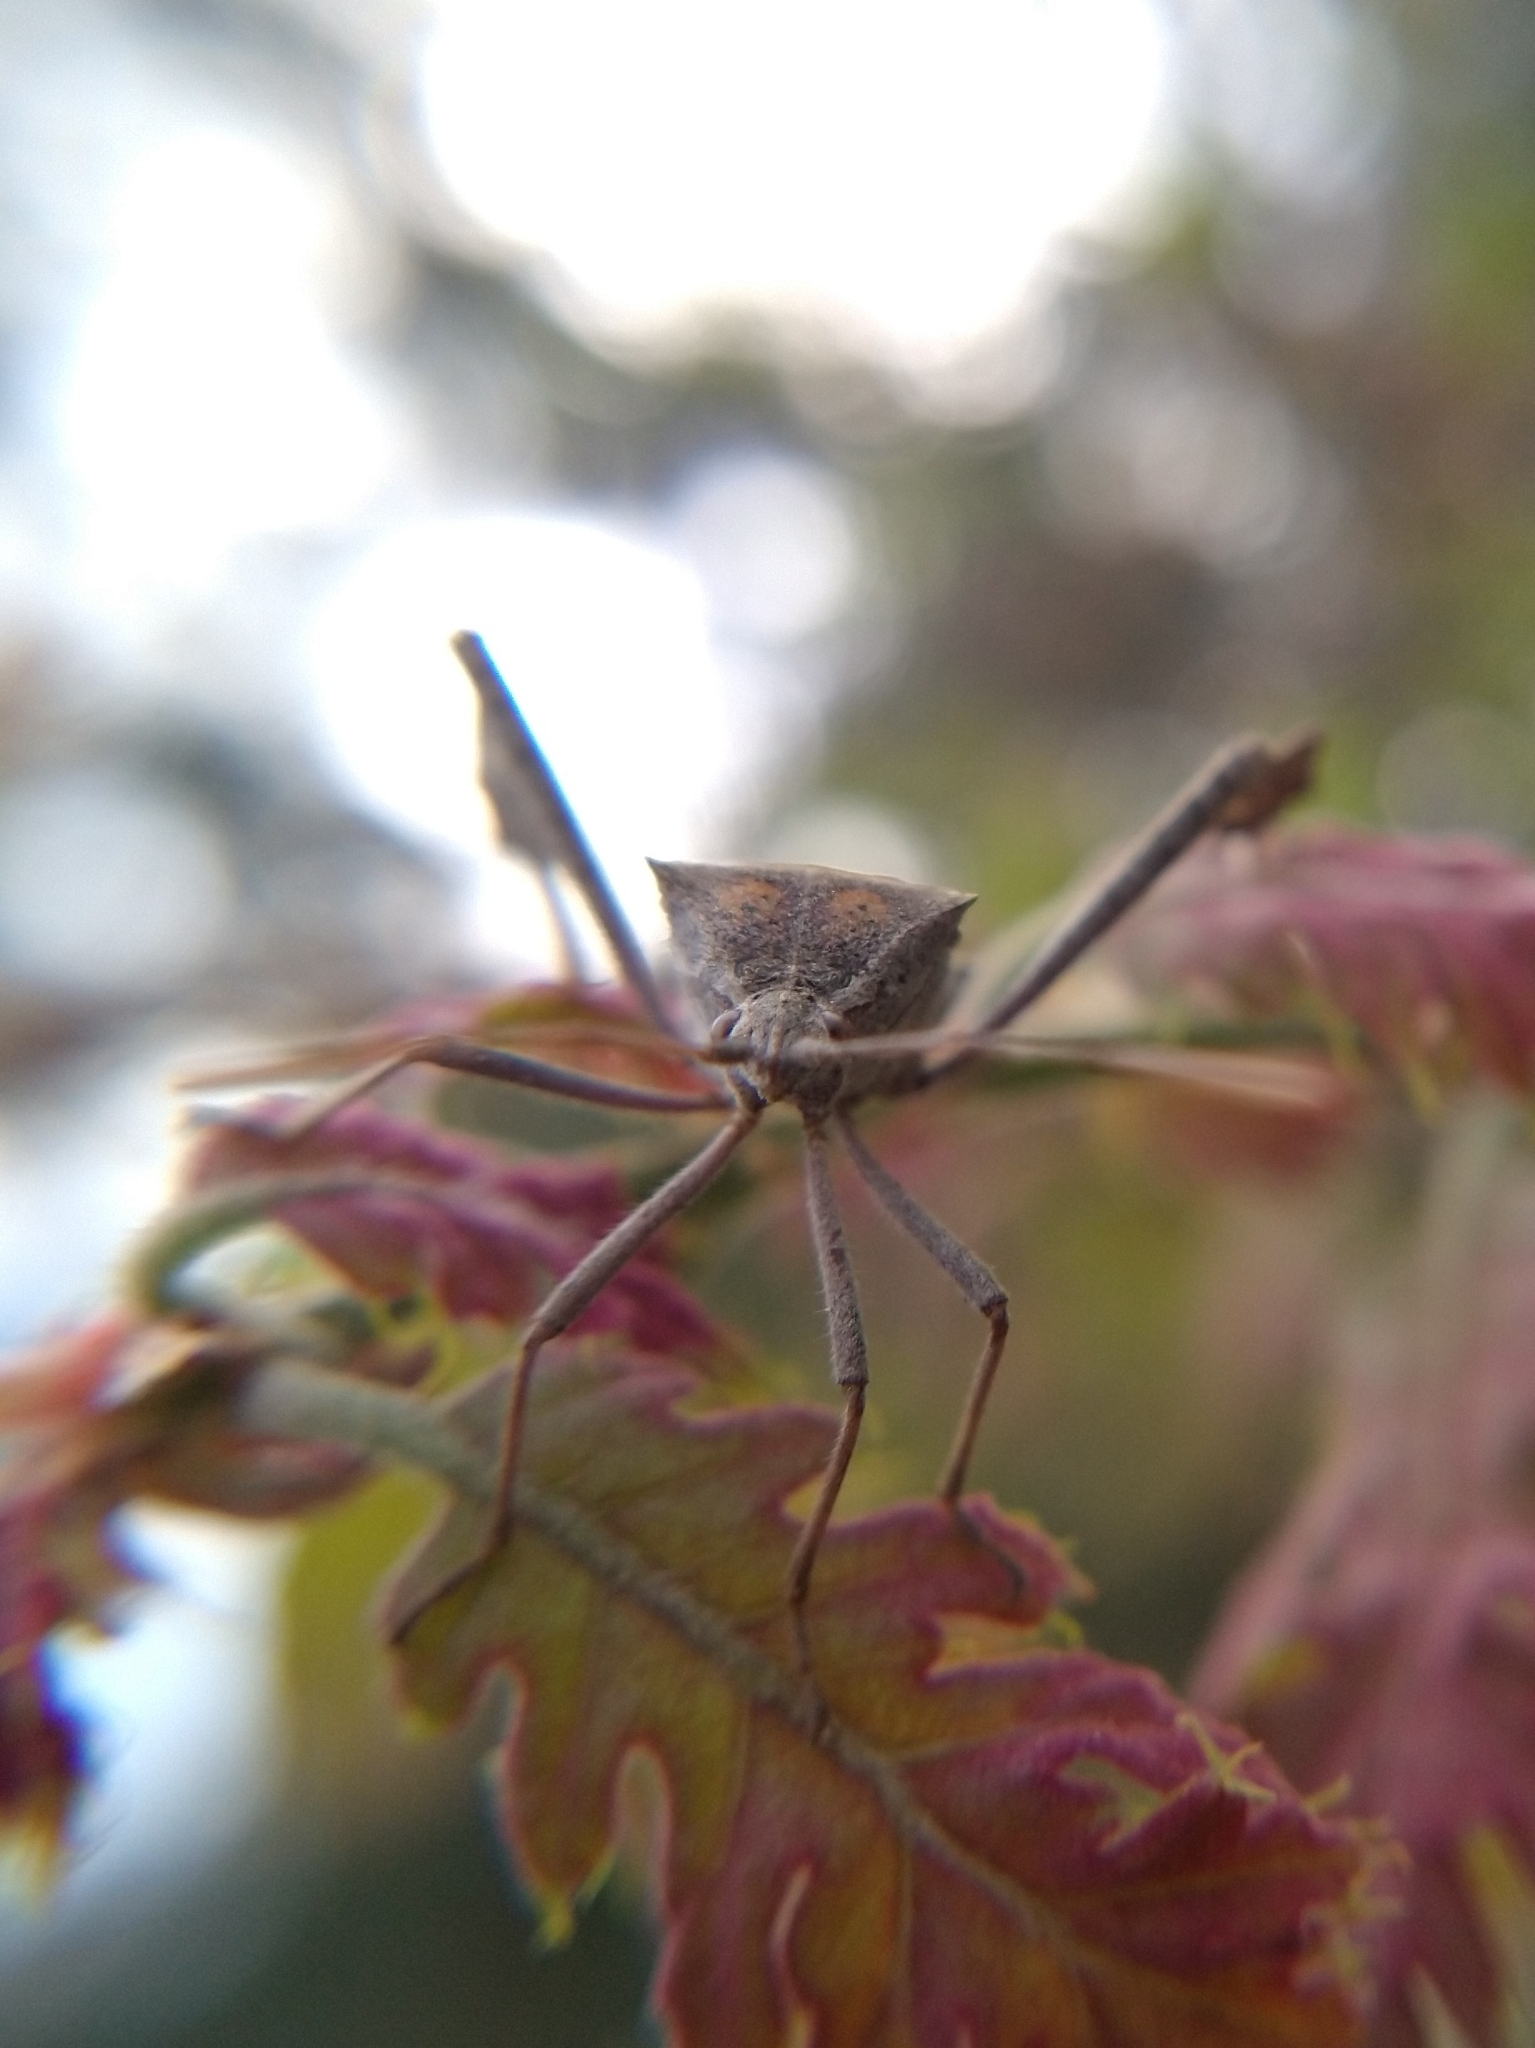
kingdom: Animalia
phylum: Arthropoda
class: Insecta
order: Hemiptera
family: Coreidae
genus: Leptoglossus
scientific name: Leptoglossus zonatus
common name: Large-legged bug
